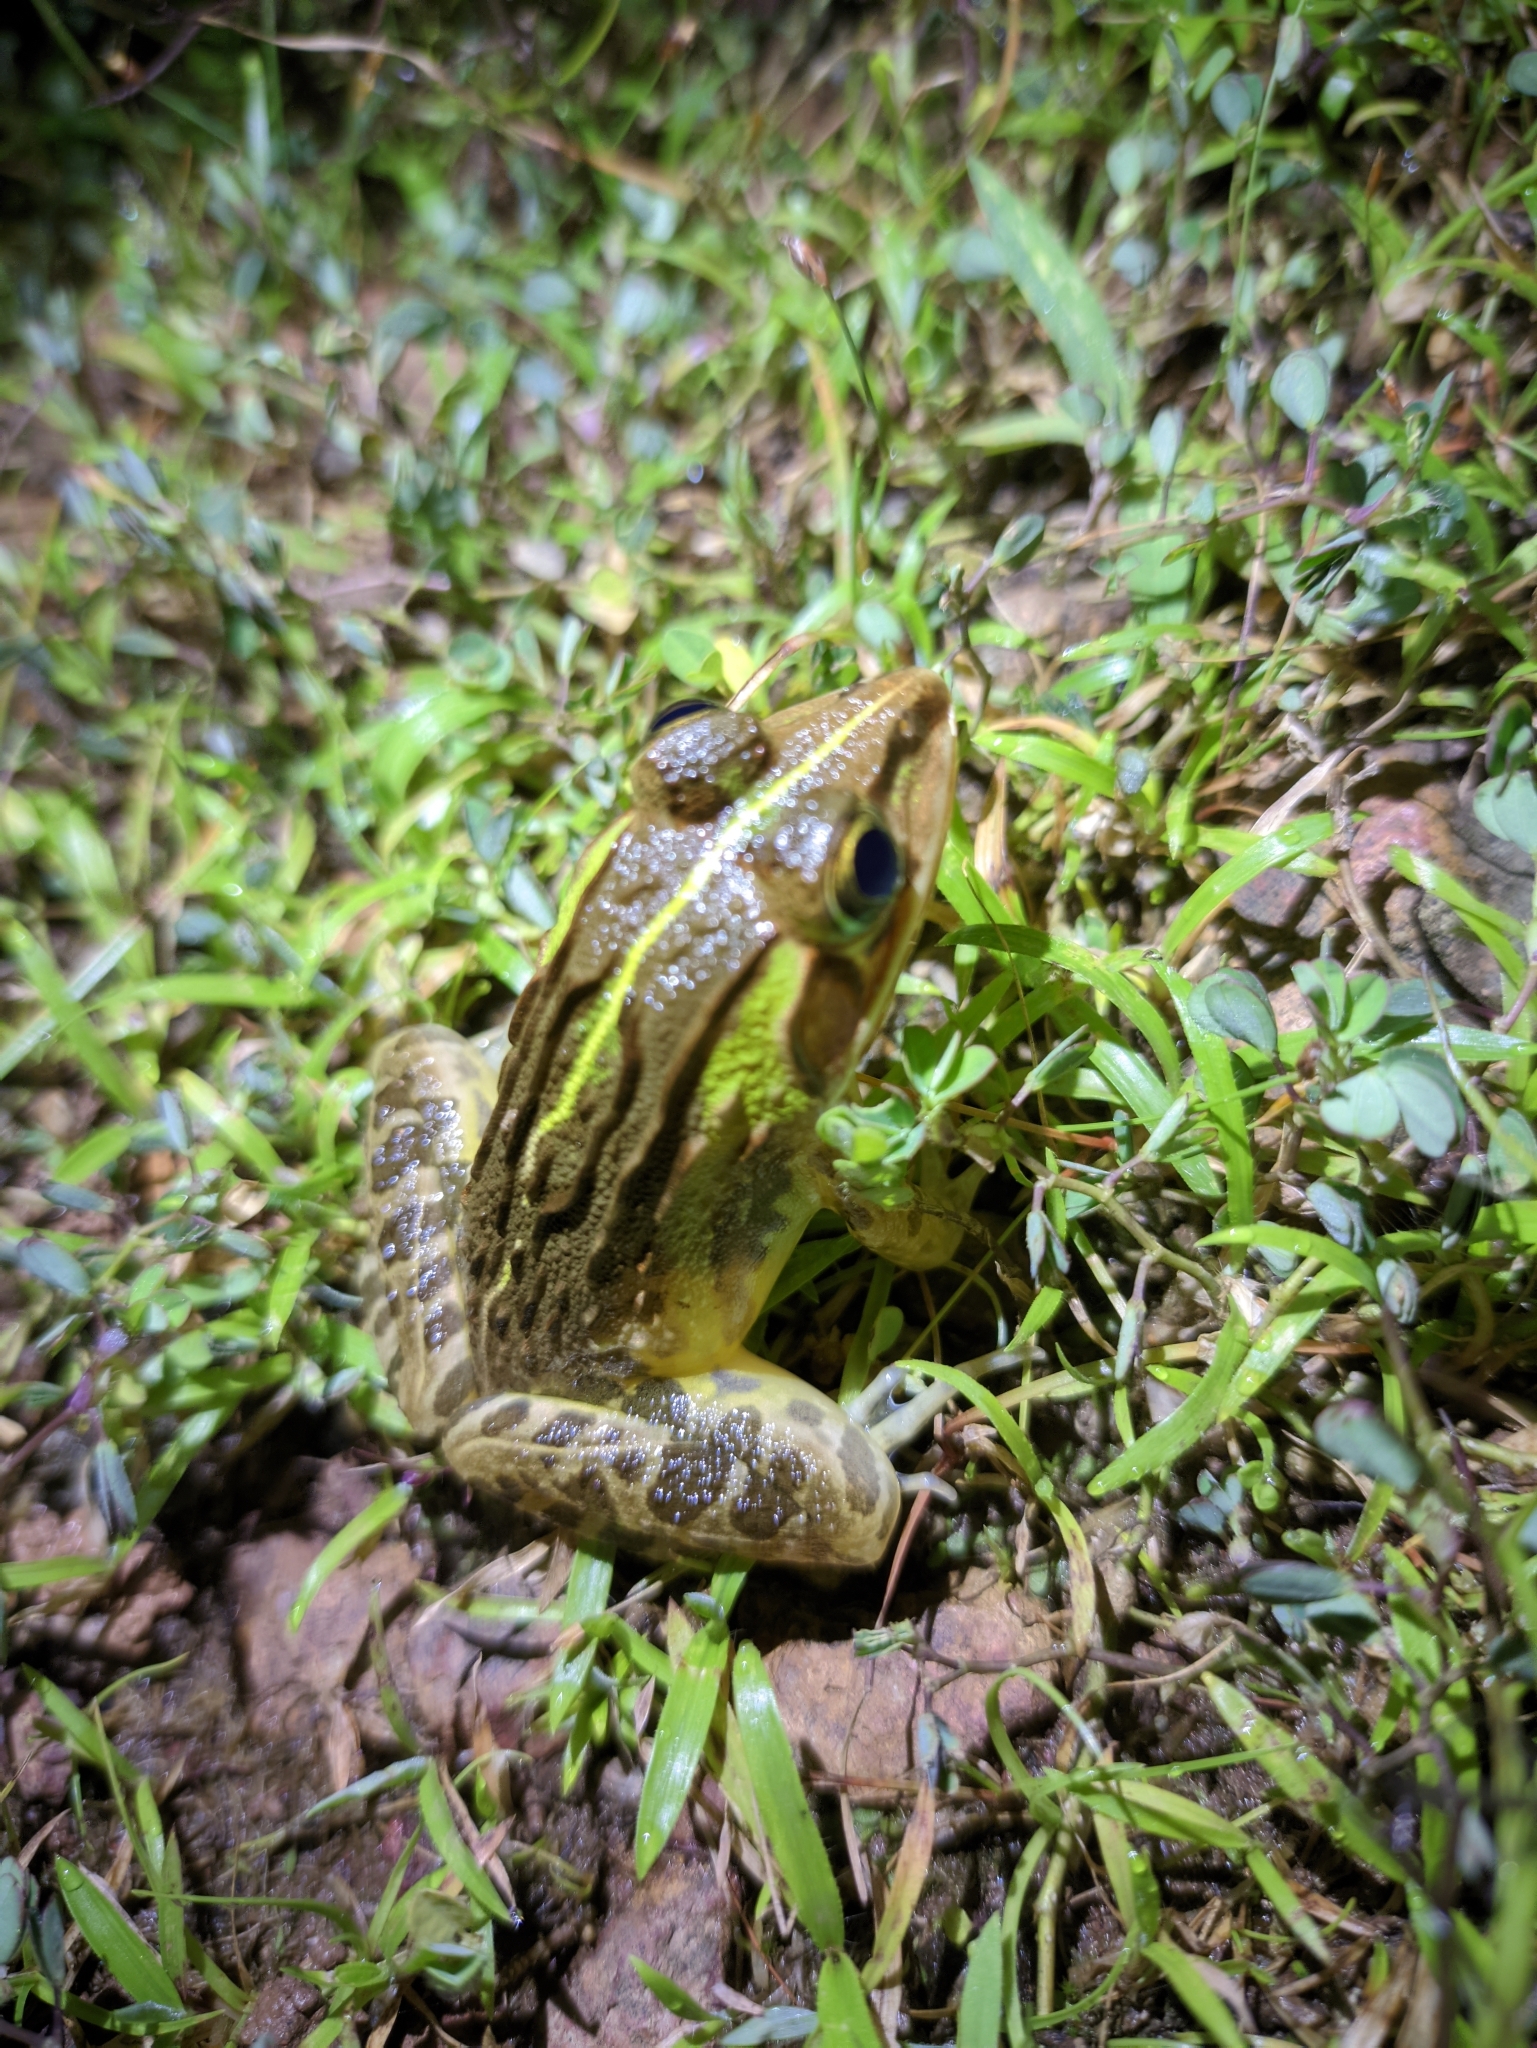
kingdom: Animalia
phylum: Chordata
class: Amphibia
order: Anura
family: Dicroglossidae
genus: Hoplobatrachus
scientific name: Hoplobatrachus tigerinus
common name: Indian bullfrog
